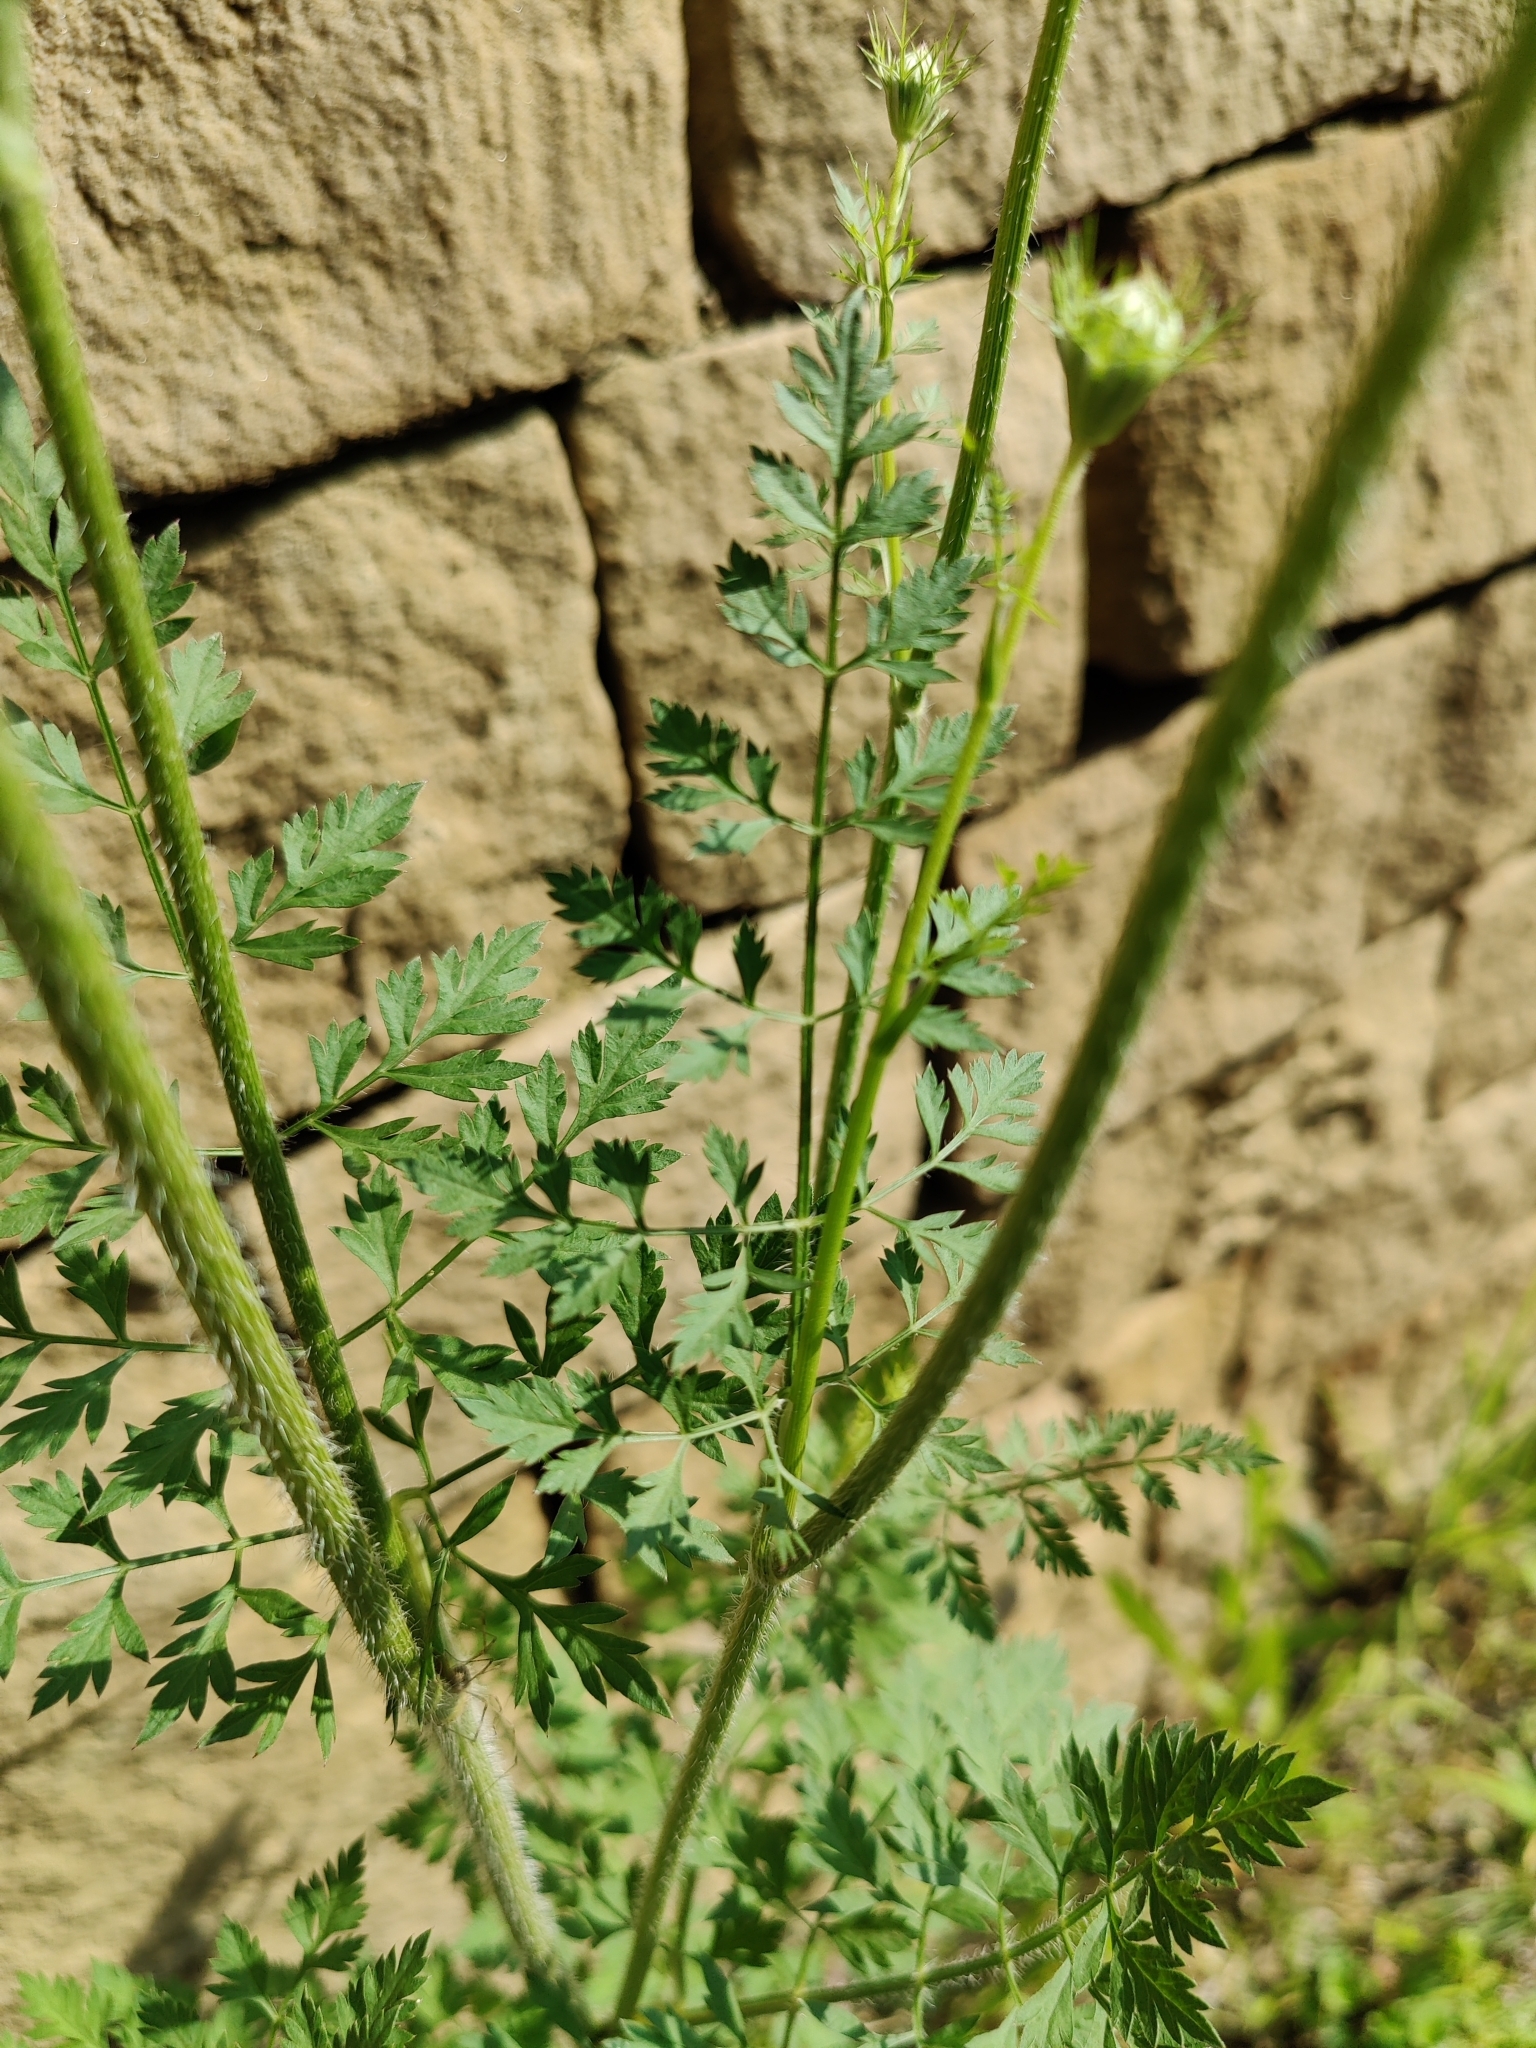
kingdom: Plantae
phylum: Tracheophyta
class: Magnoliopsida
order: Apiales
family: Apiaceae
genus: Daucus
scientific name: Daucus carota
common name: Wild carrot
